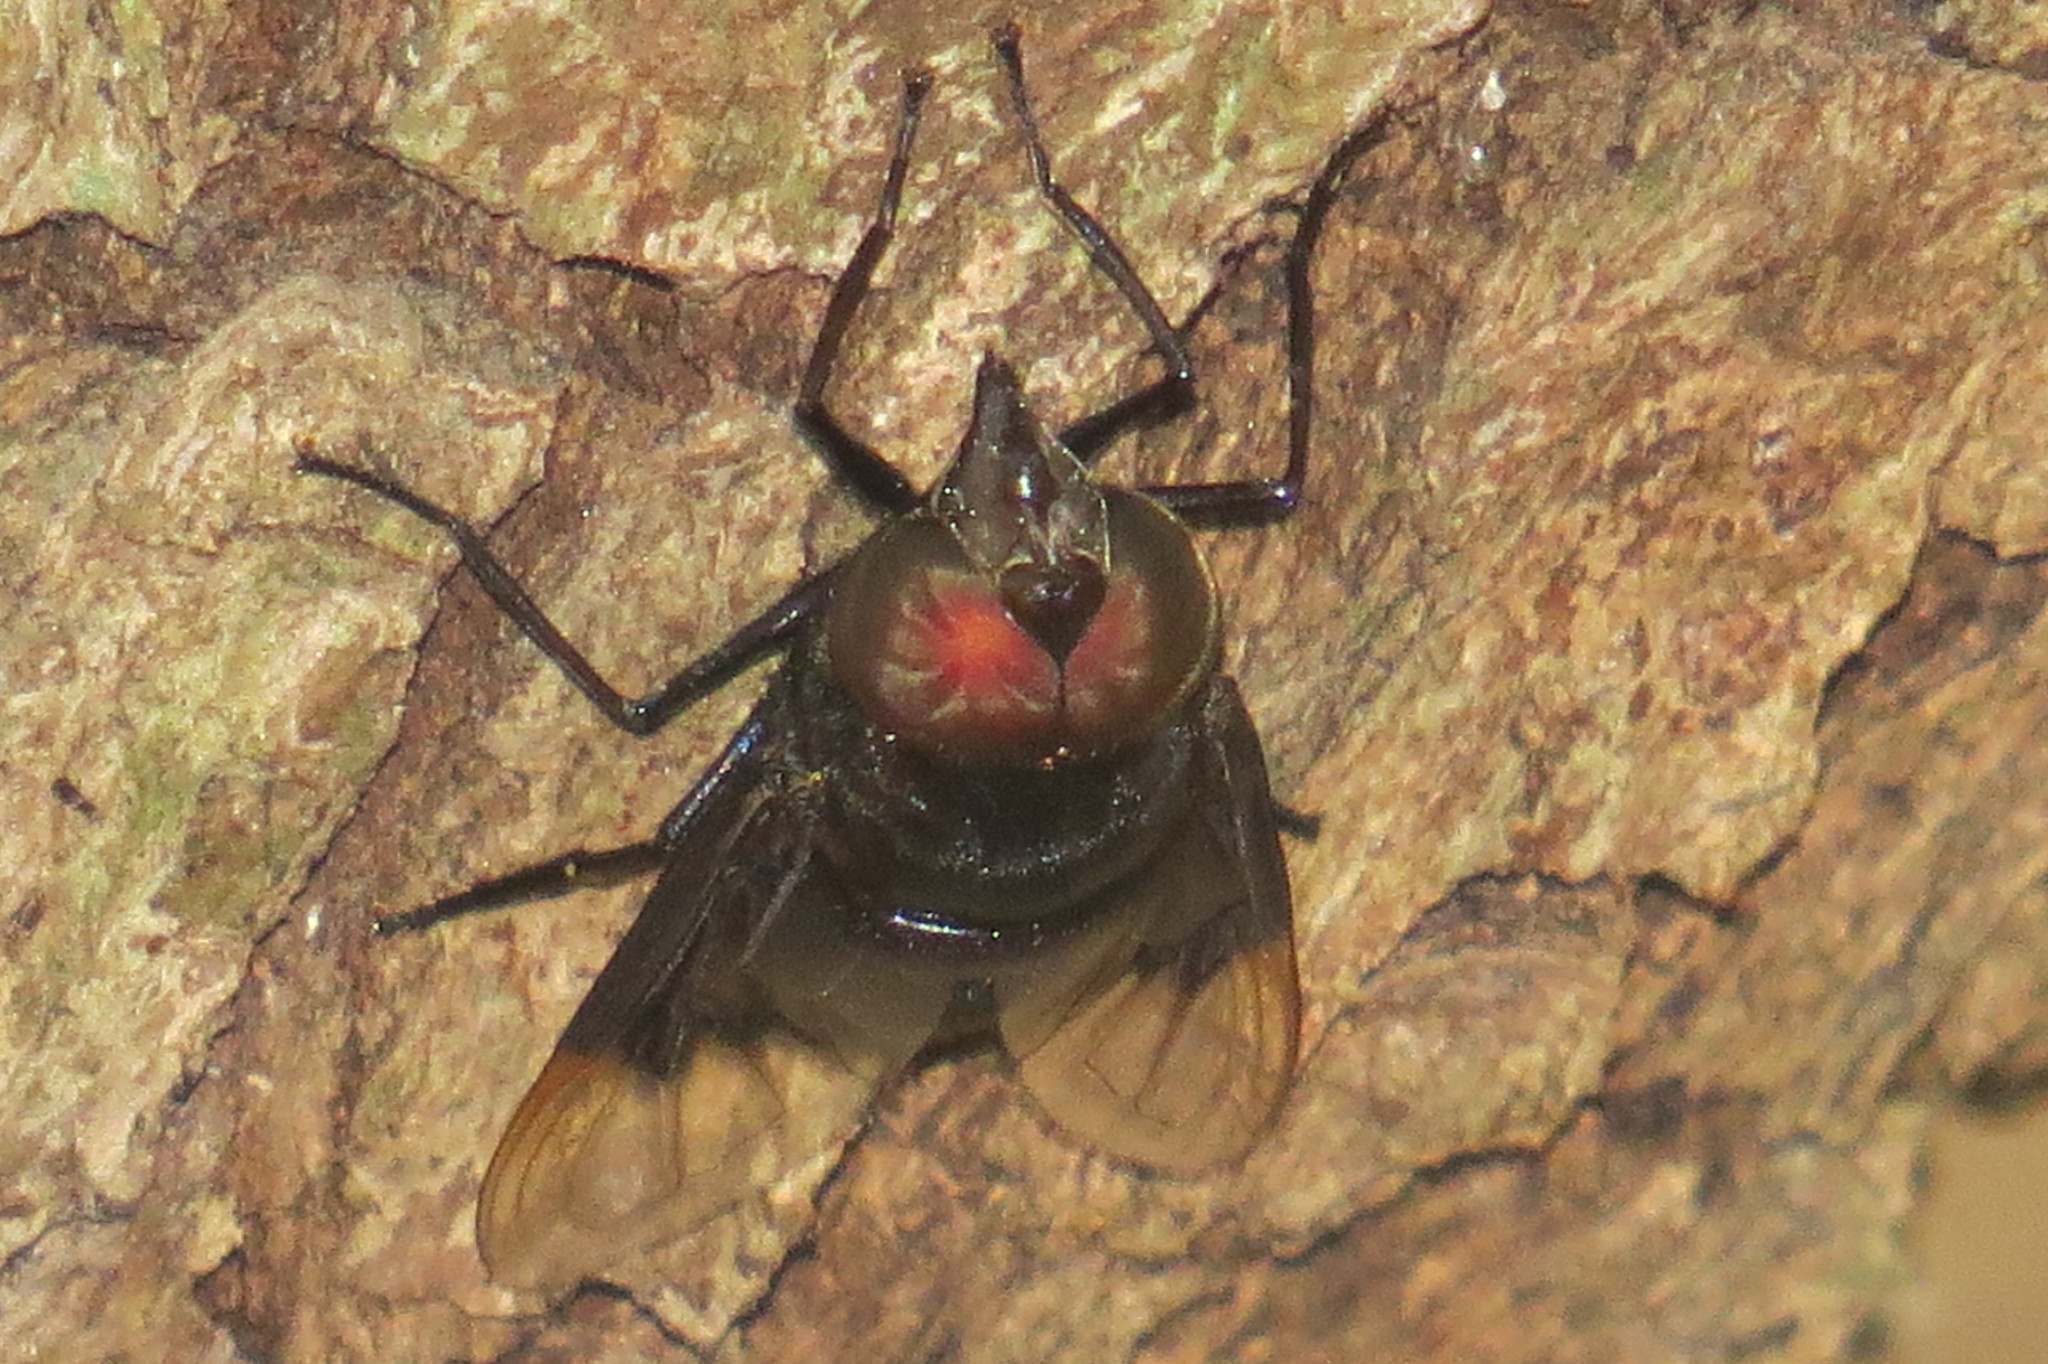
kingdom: Animalia
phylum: Arthropoda
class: Insecta
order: Diptera
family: Syrphidae
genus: Copestylum
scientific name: Copestylum mexicanum
